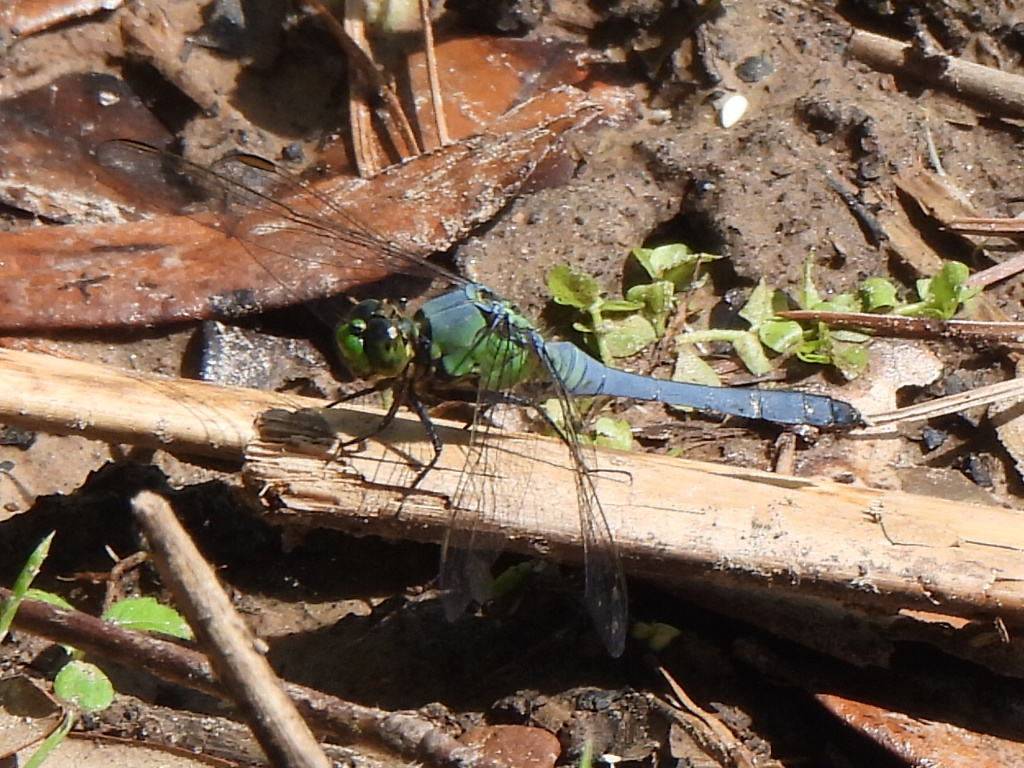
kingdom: Animalia
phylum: Arthropoda
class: Insecta
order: Odonata
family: Libellulidae
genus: Erythemis
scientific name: Erythemis simplicicollis
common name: Eastern pondhawk
